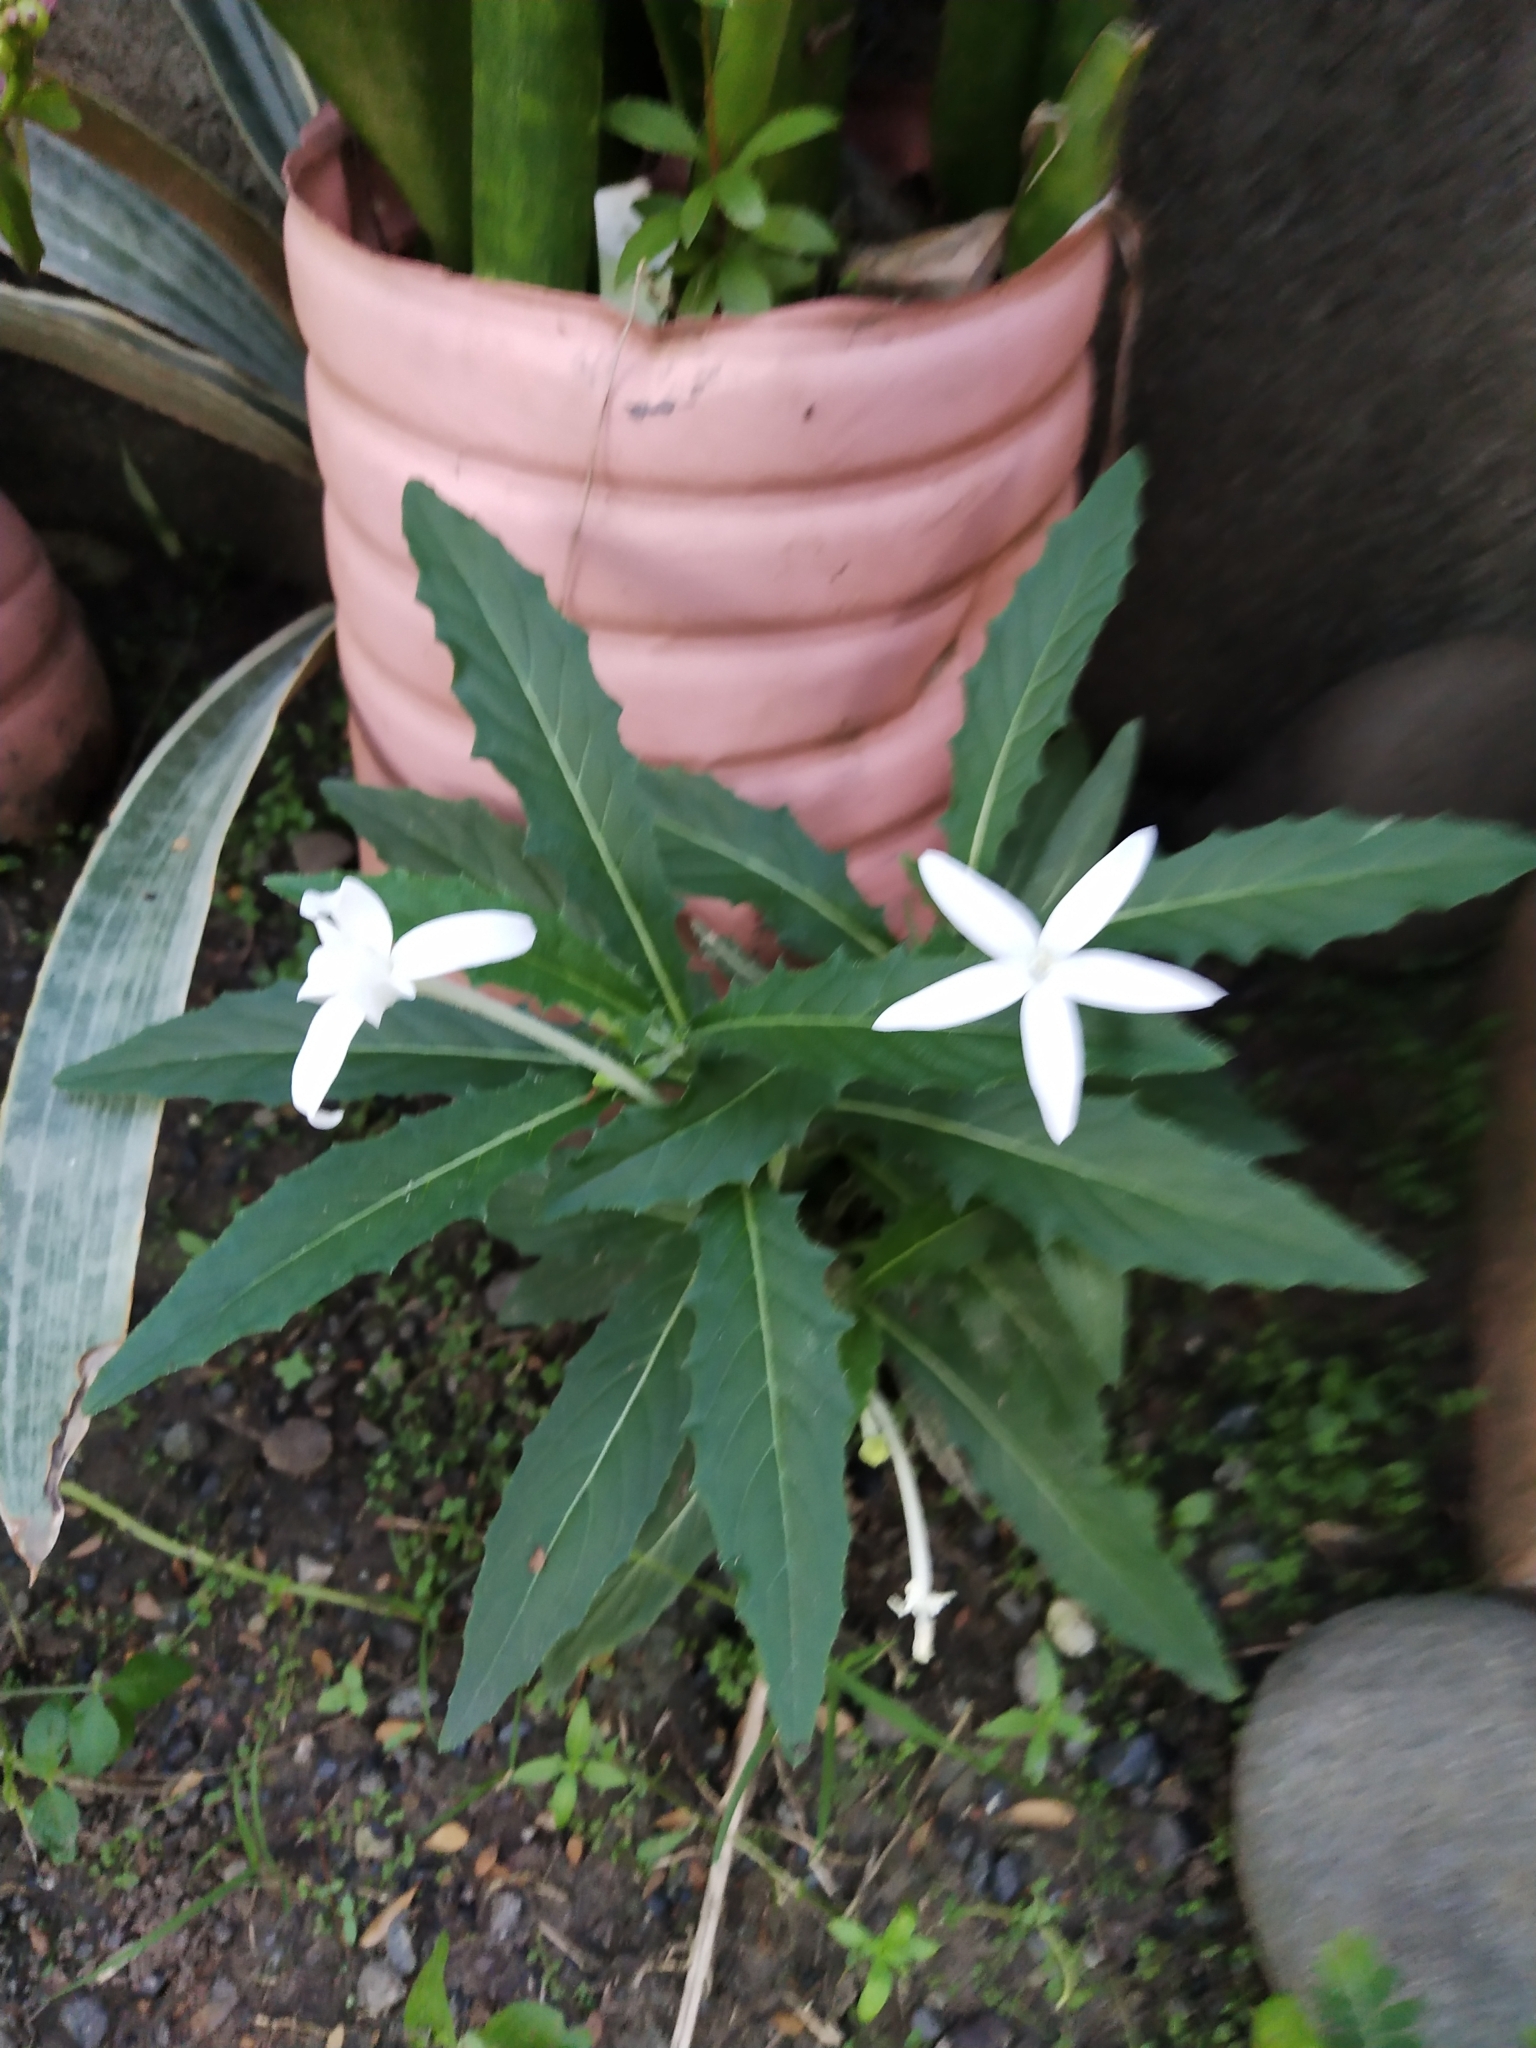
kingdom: Plantae
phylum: Tracheophyta
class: Magnoliopsida
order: Asterales
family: Campanulaceae
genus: Hippobroma
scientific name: Hippobroma longiflora
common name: Madamfate
